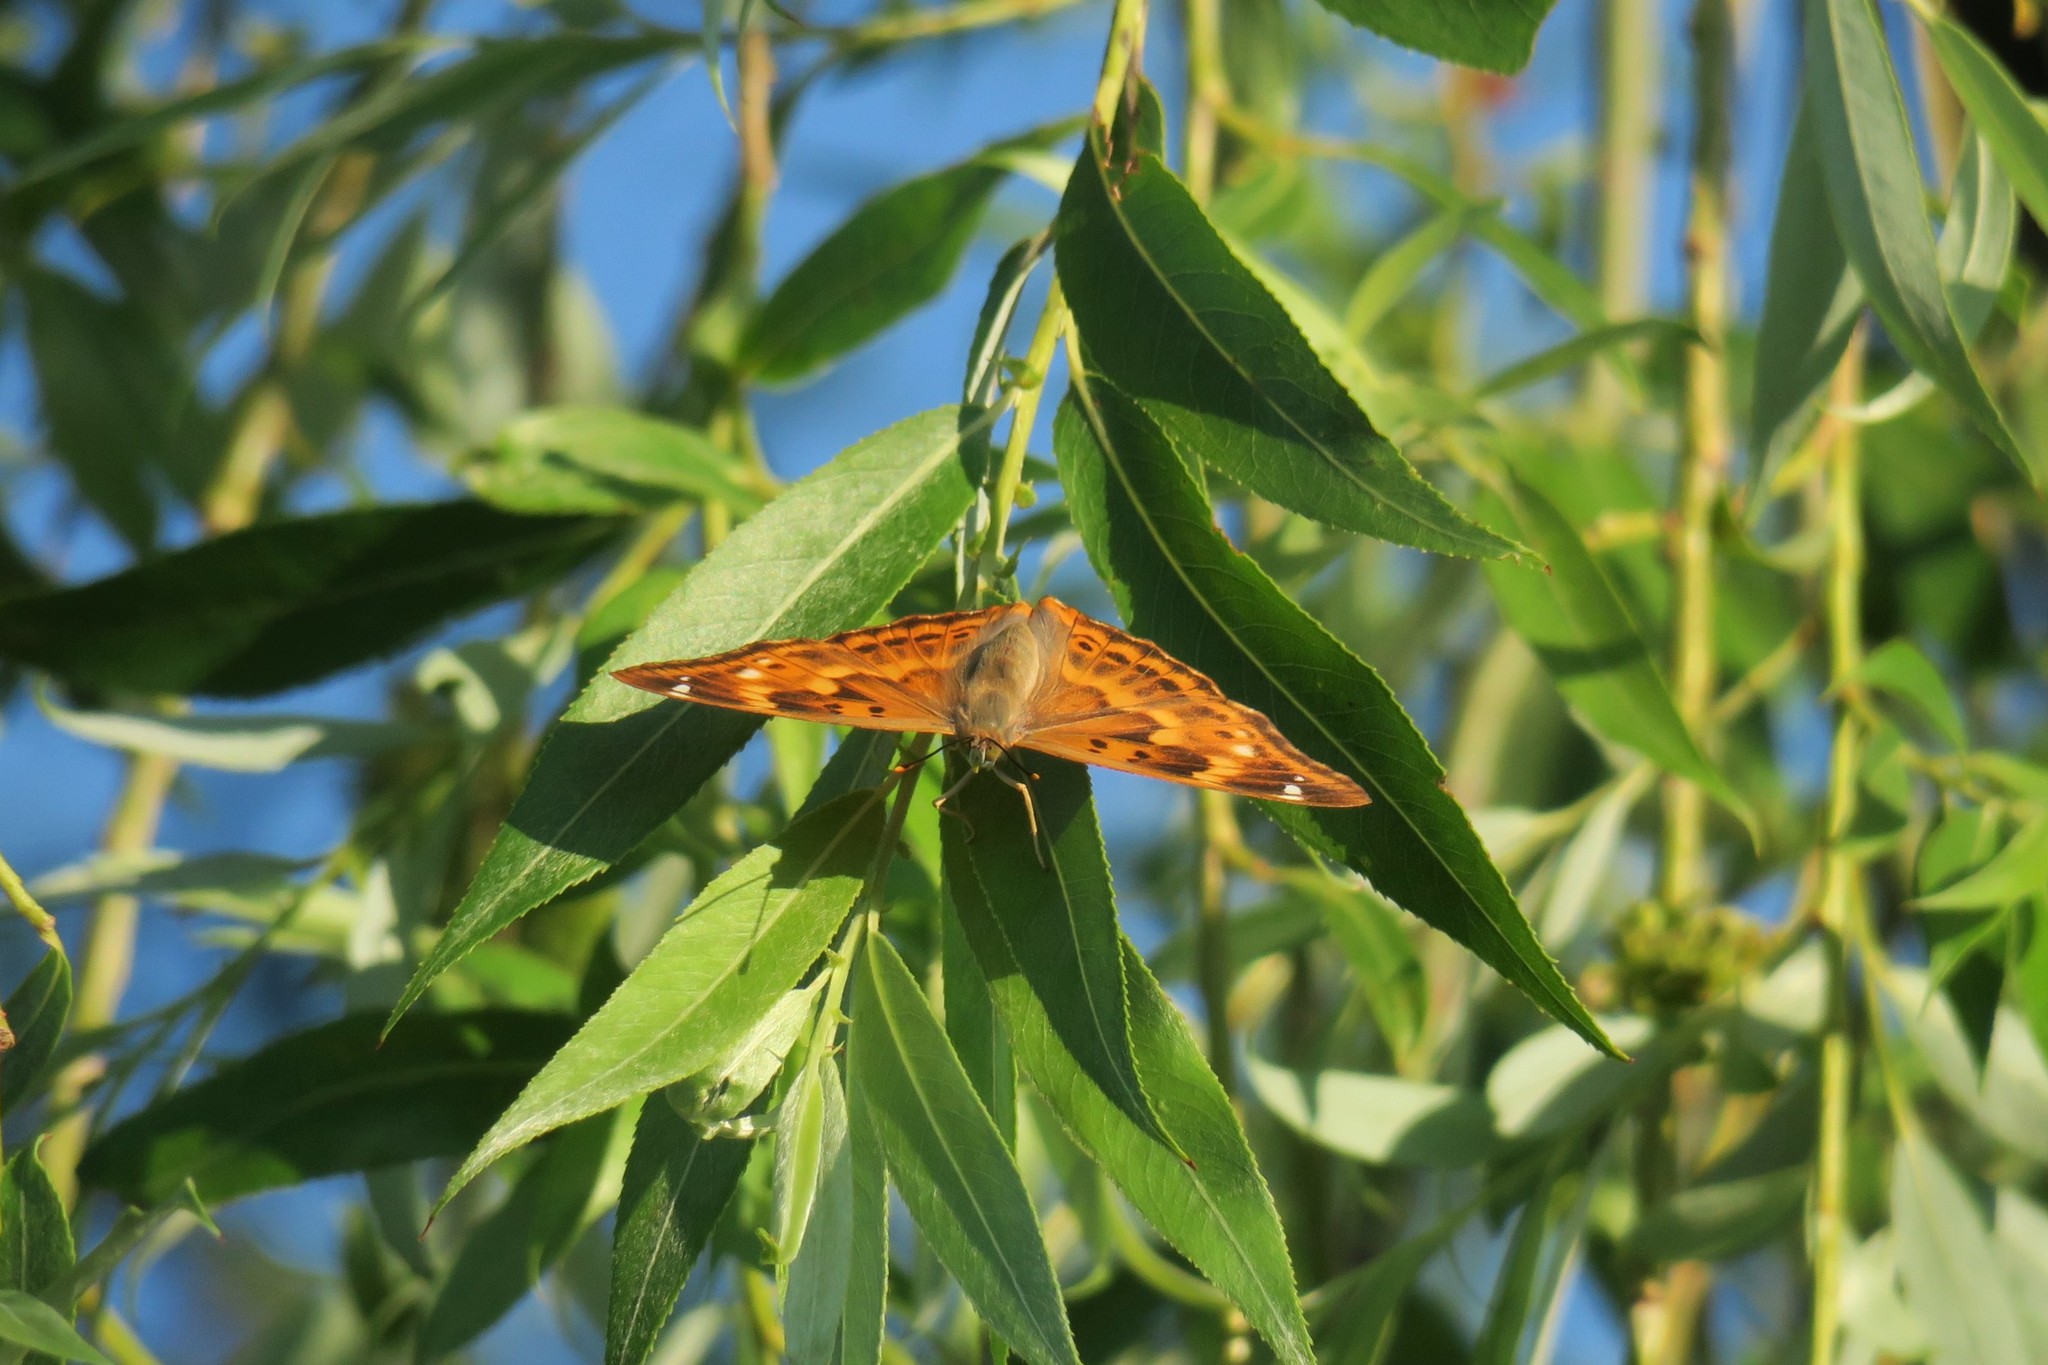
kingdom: Animalia
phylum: Arthropoda
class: Insecta
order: Lepidoptera
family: Nymphalidae
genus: Apatura
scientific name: Apatura ilia
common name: Lesser purple emperor
